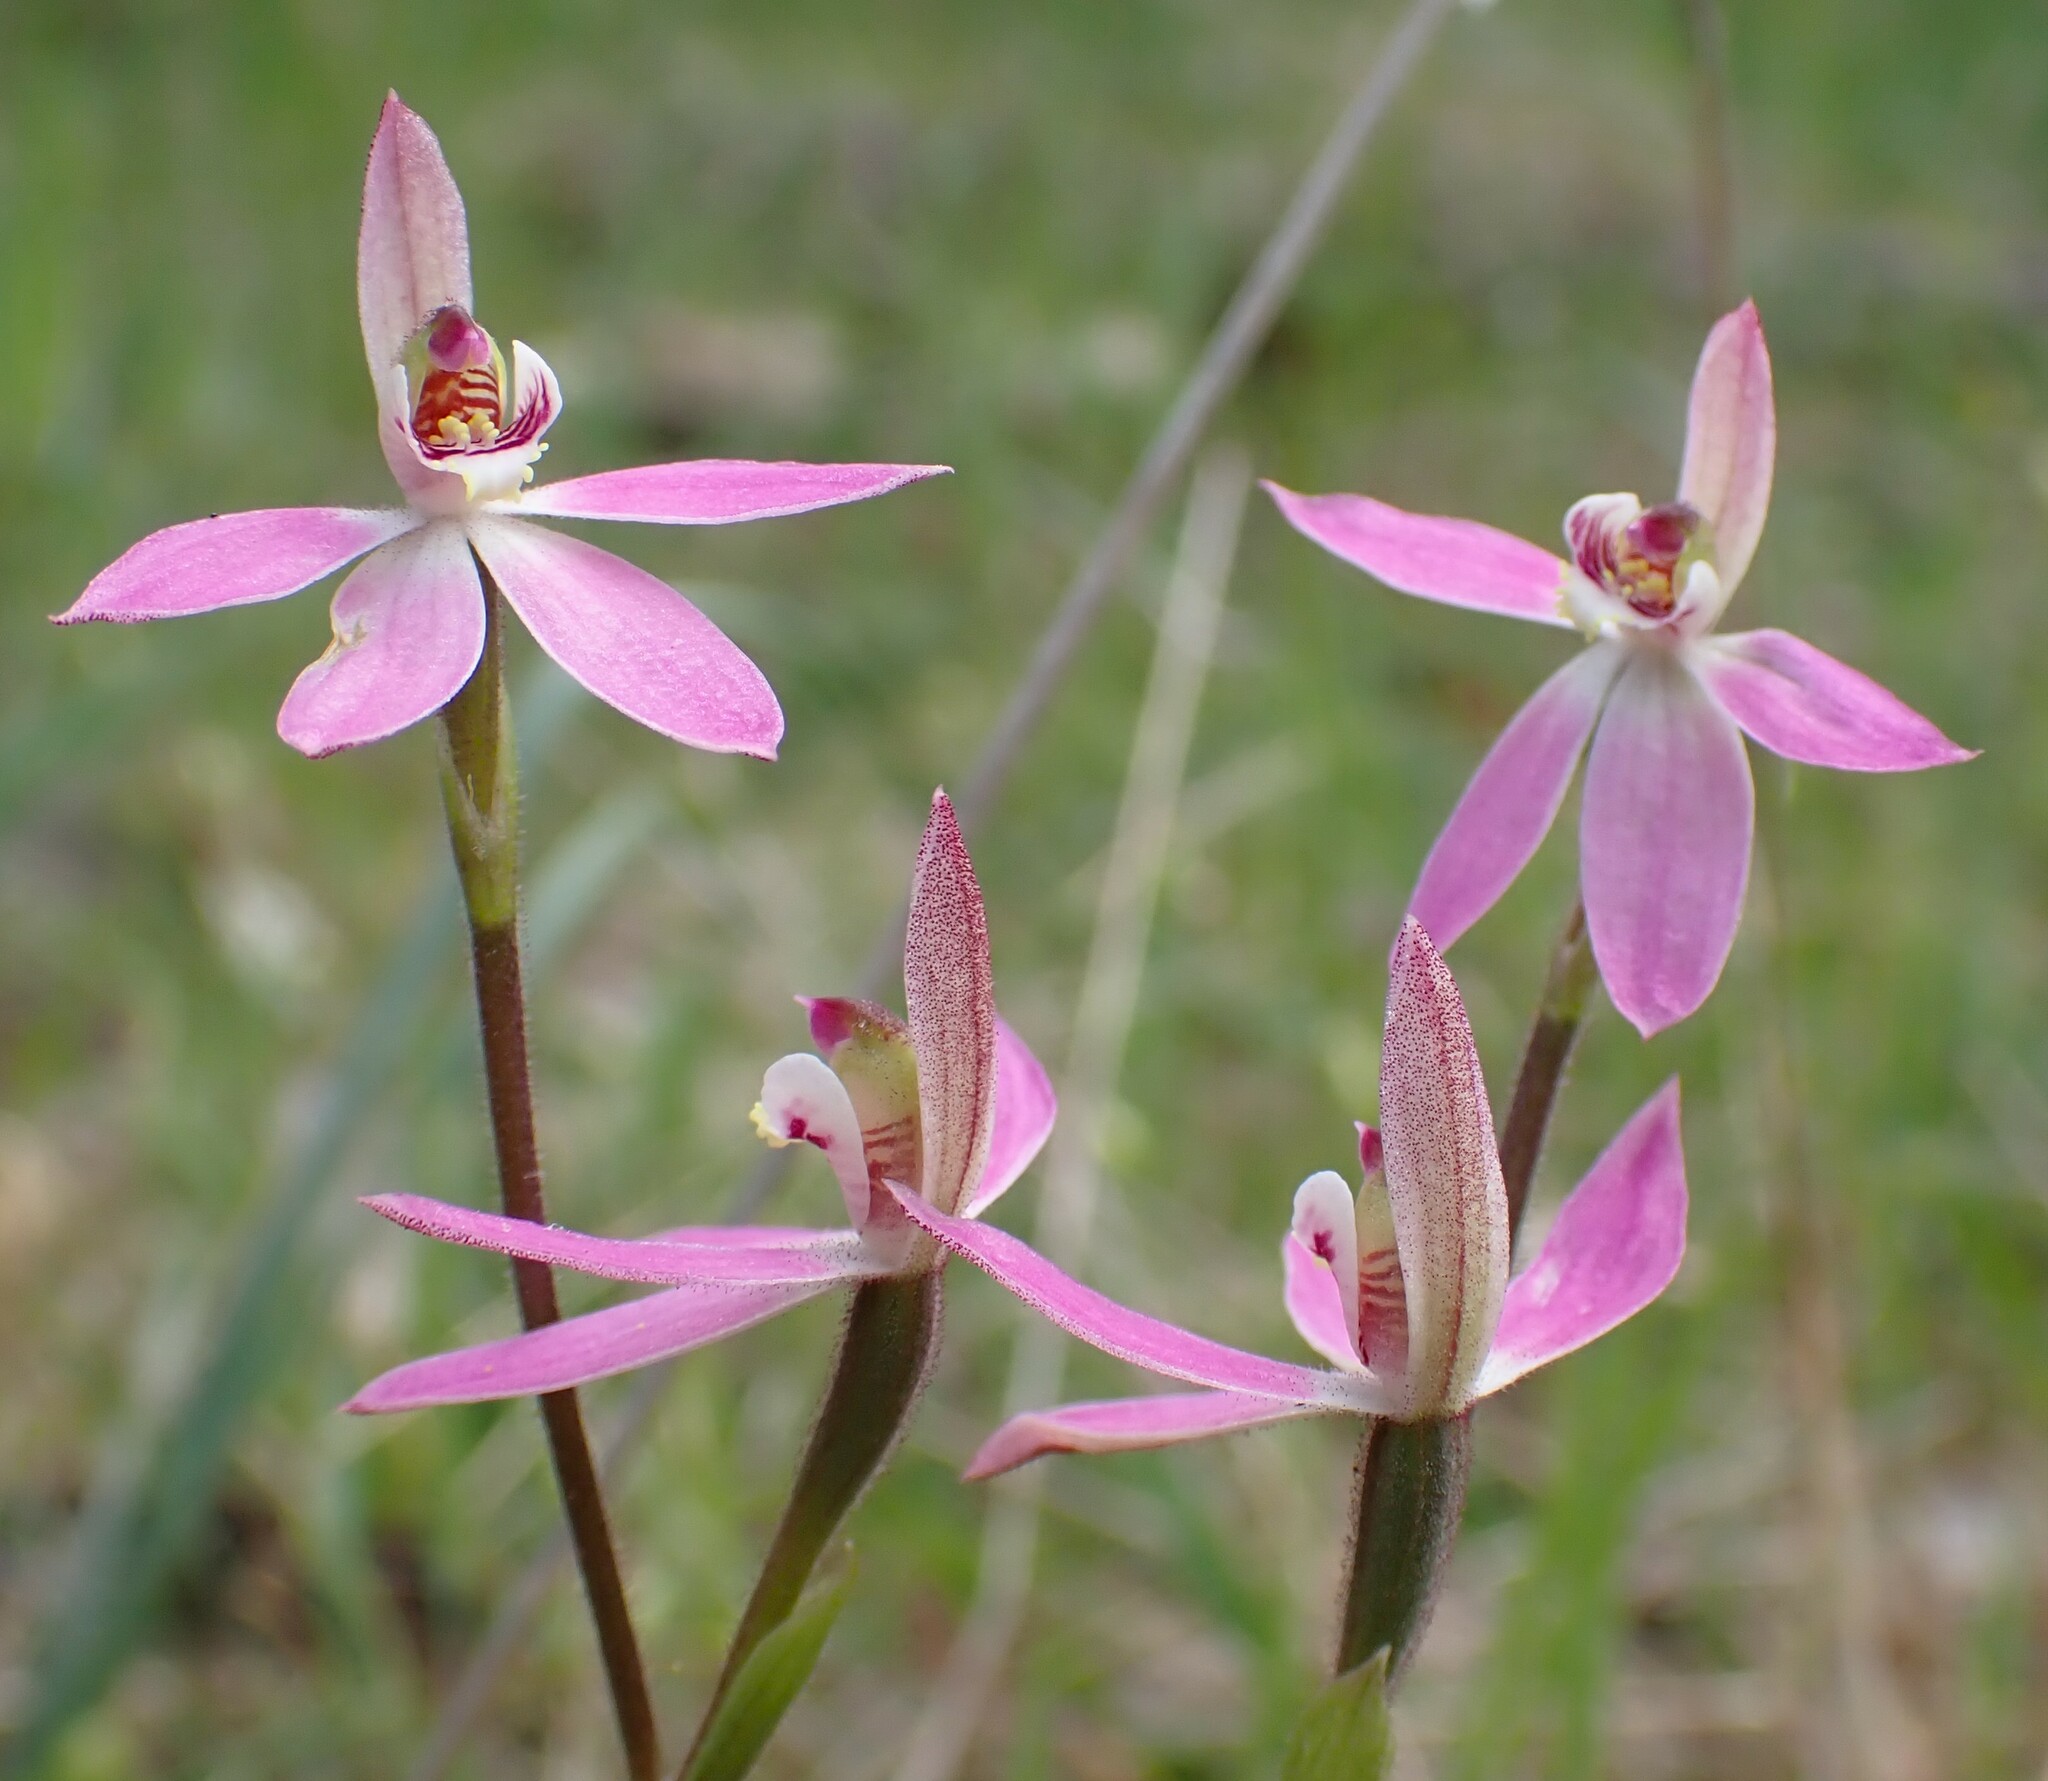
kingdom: Plantae
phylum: Tracheophyta
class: Liliopsida
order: Asparagales
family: Orchidaceae
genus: Caladenia
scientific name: Caladenia carnea
